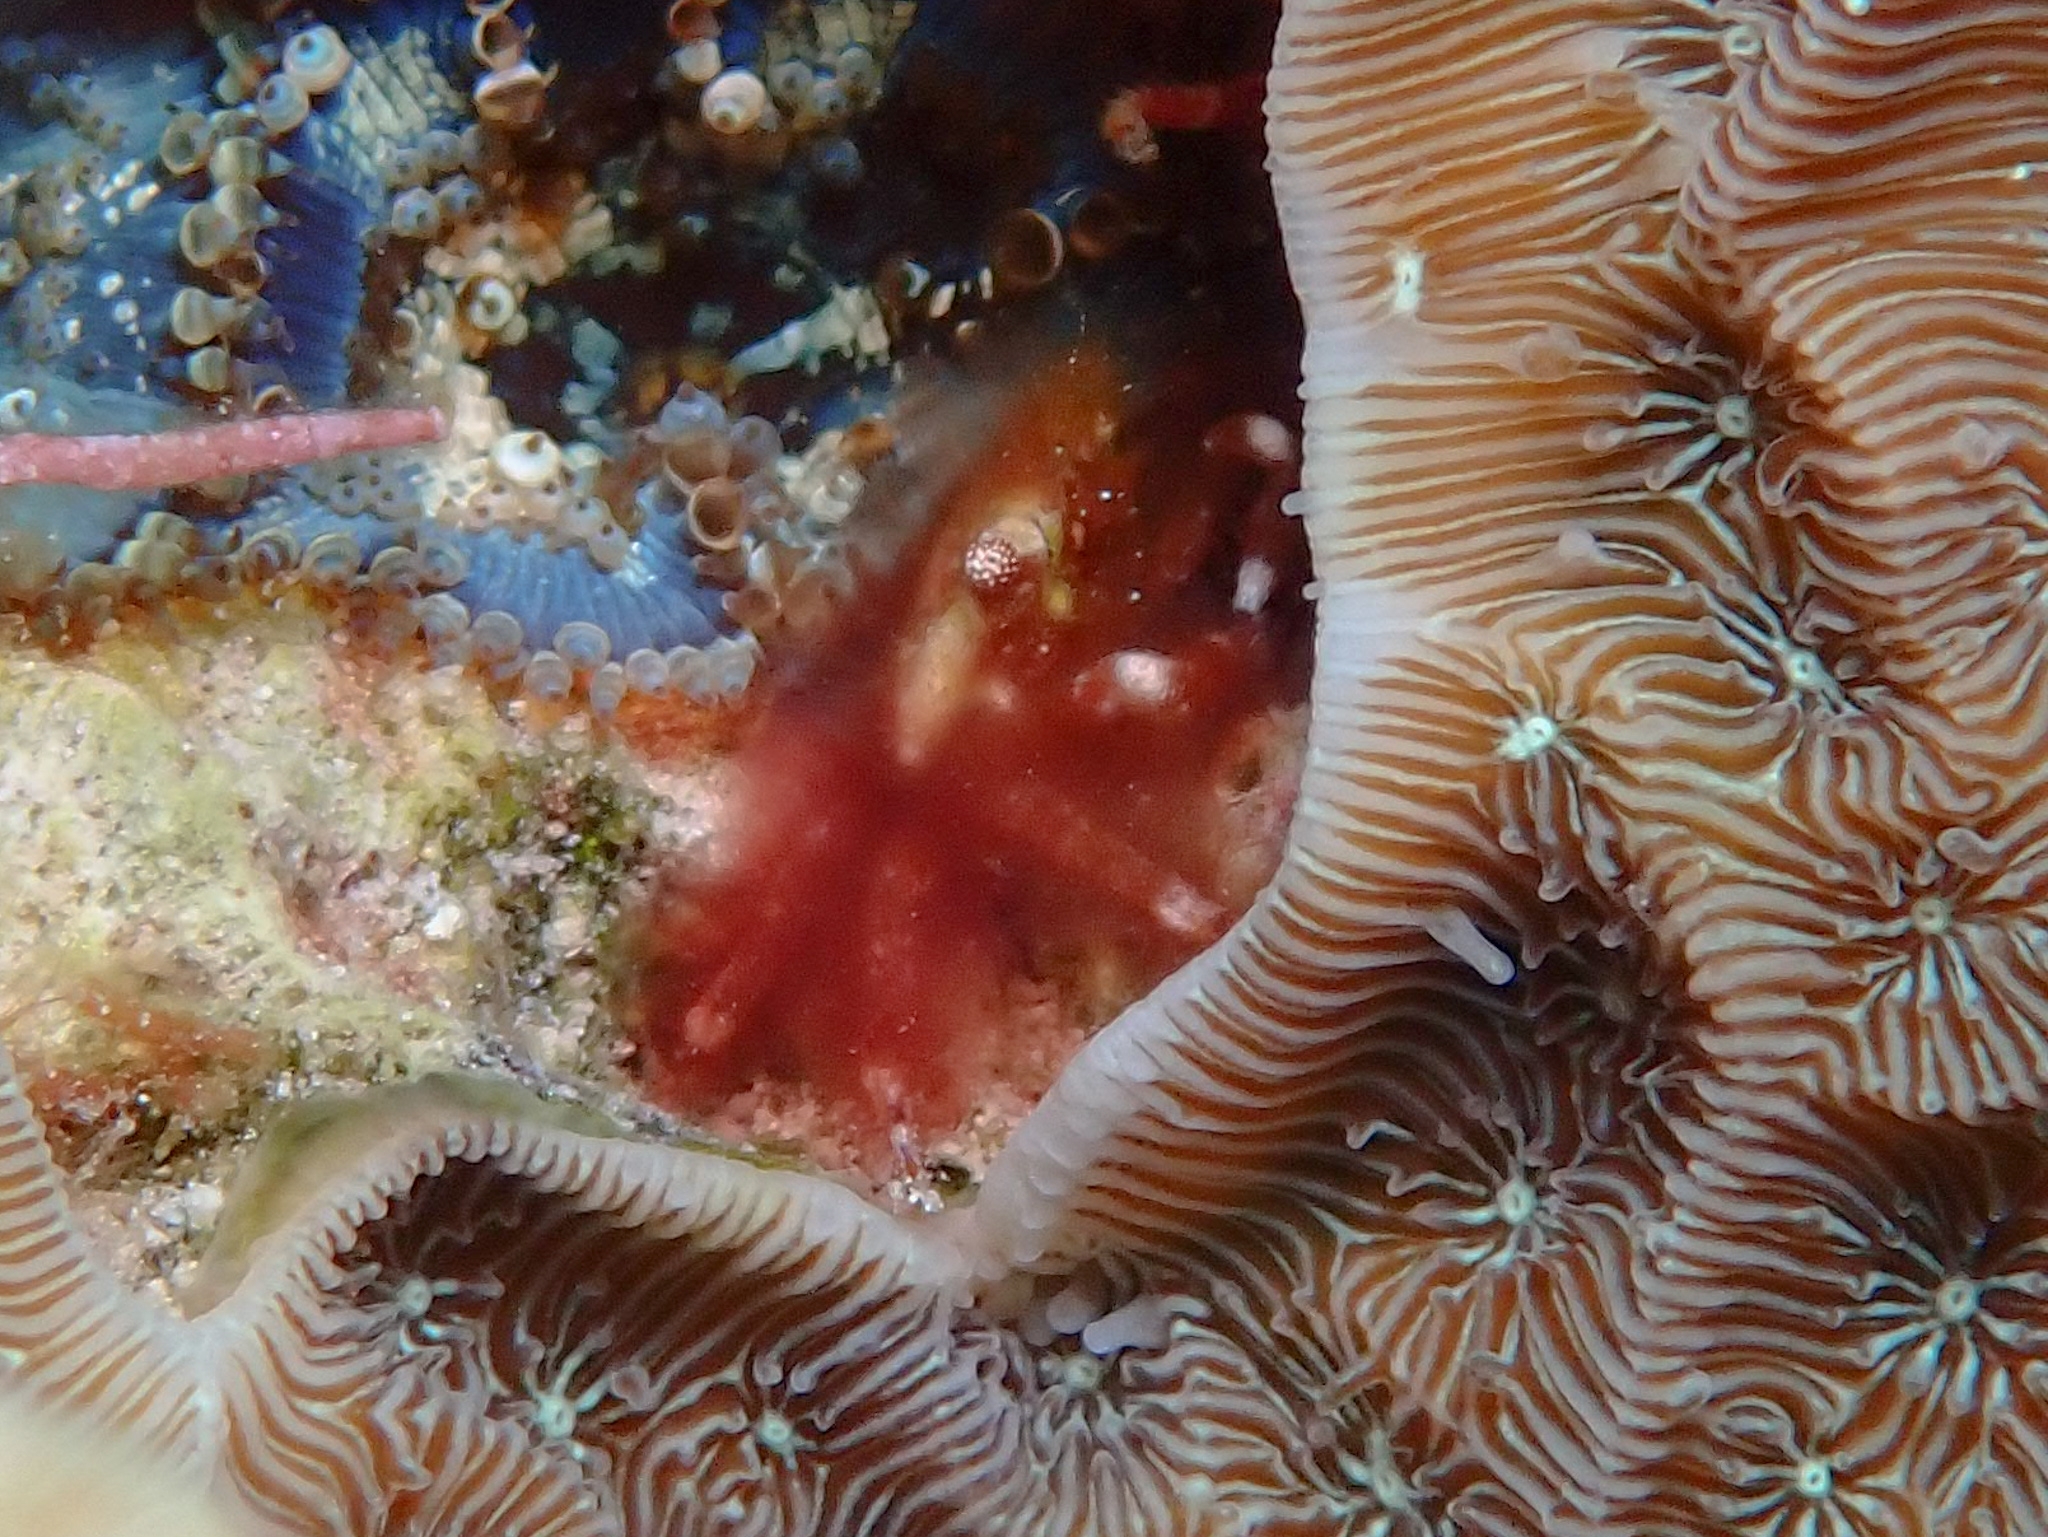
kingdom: Animalia
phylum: Arthropoda
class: Malacostraca
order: Decapoda
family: Mithracidae
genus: Mithraculus
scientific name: Mithraculus cinctimanus
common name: Banded clinging crab
